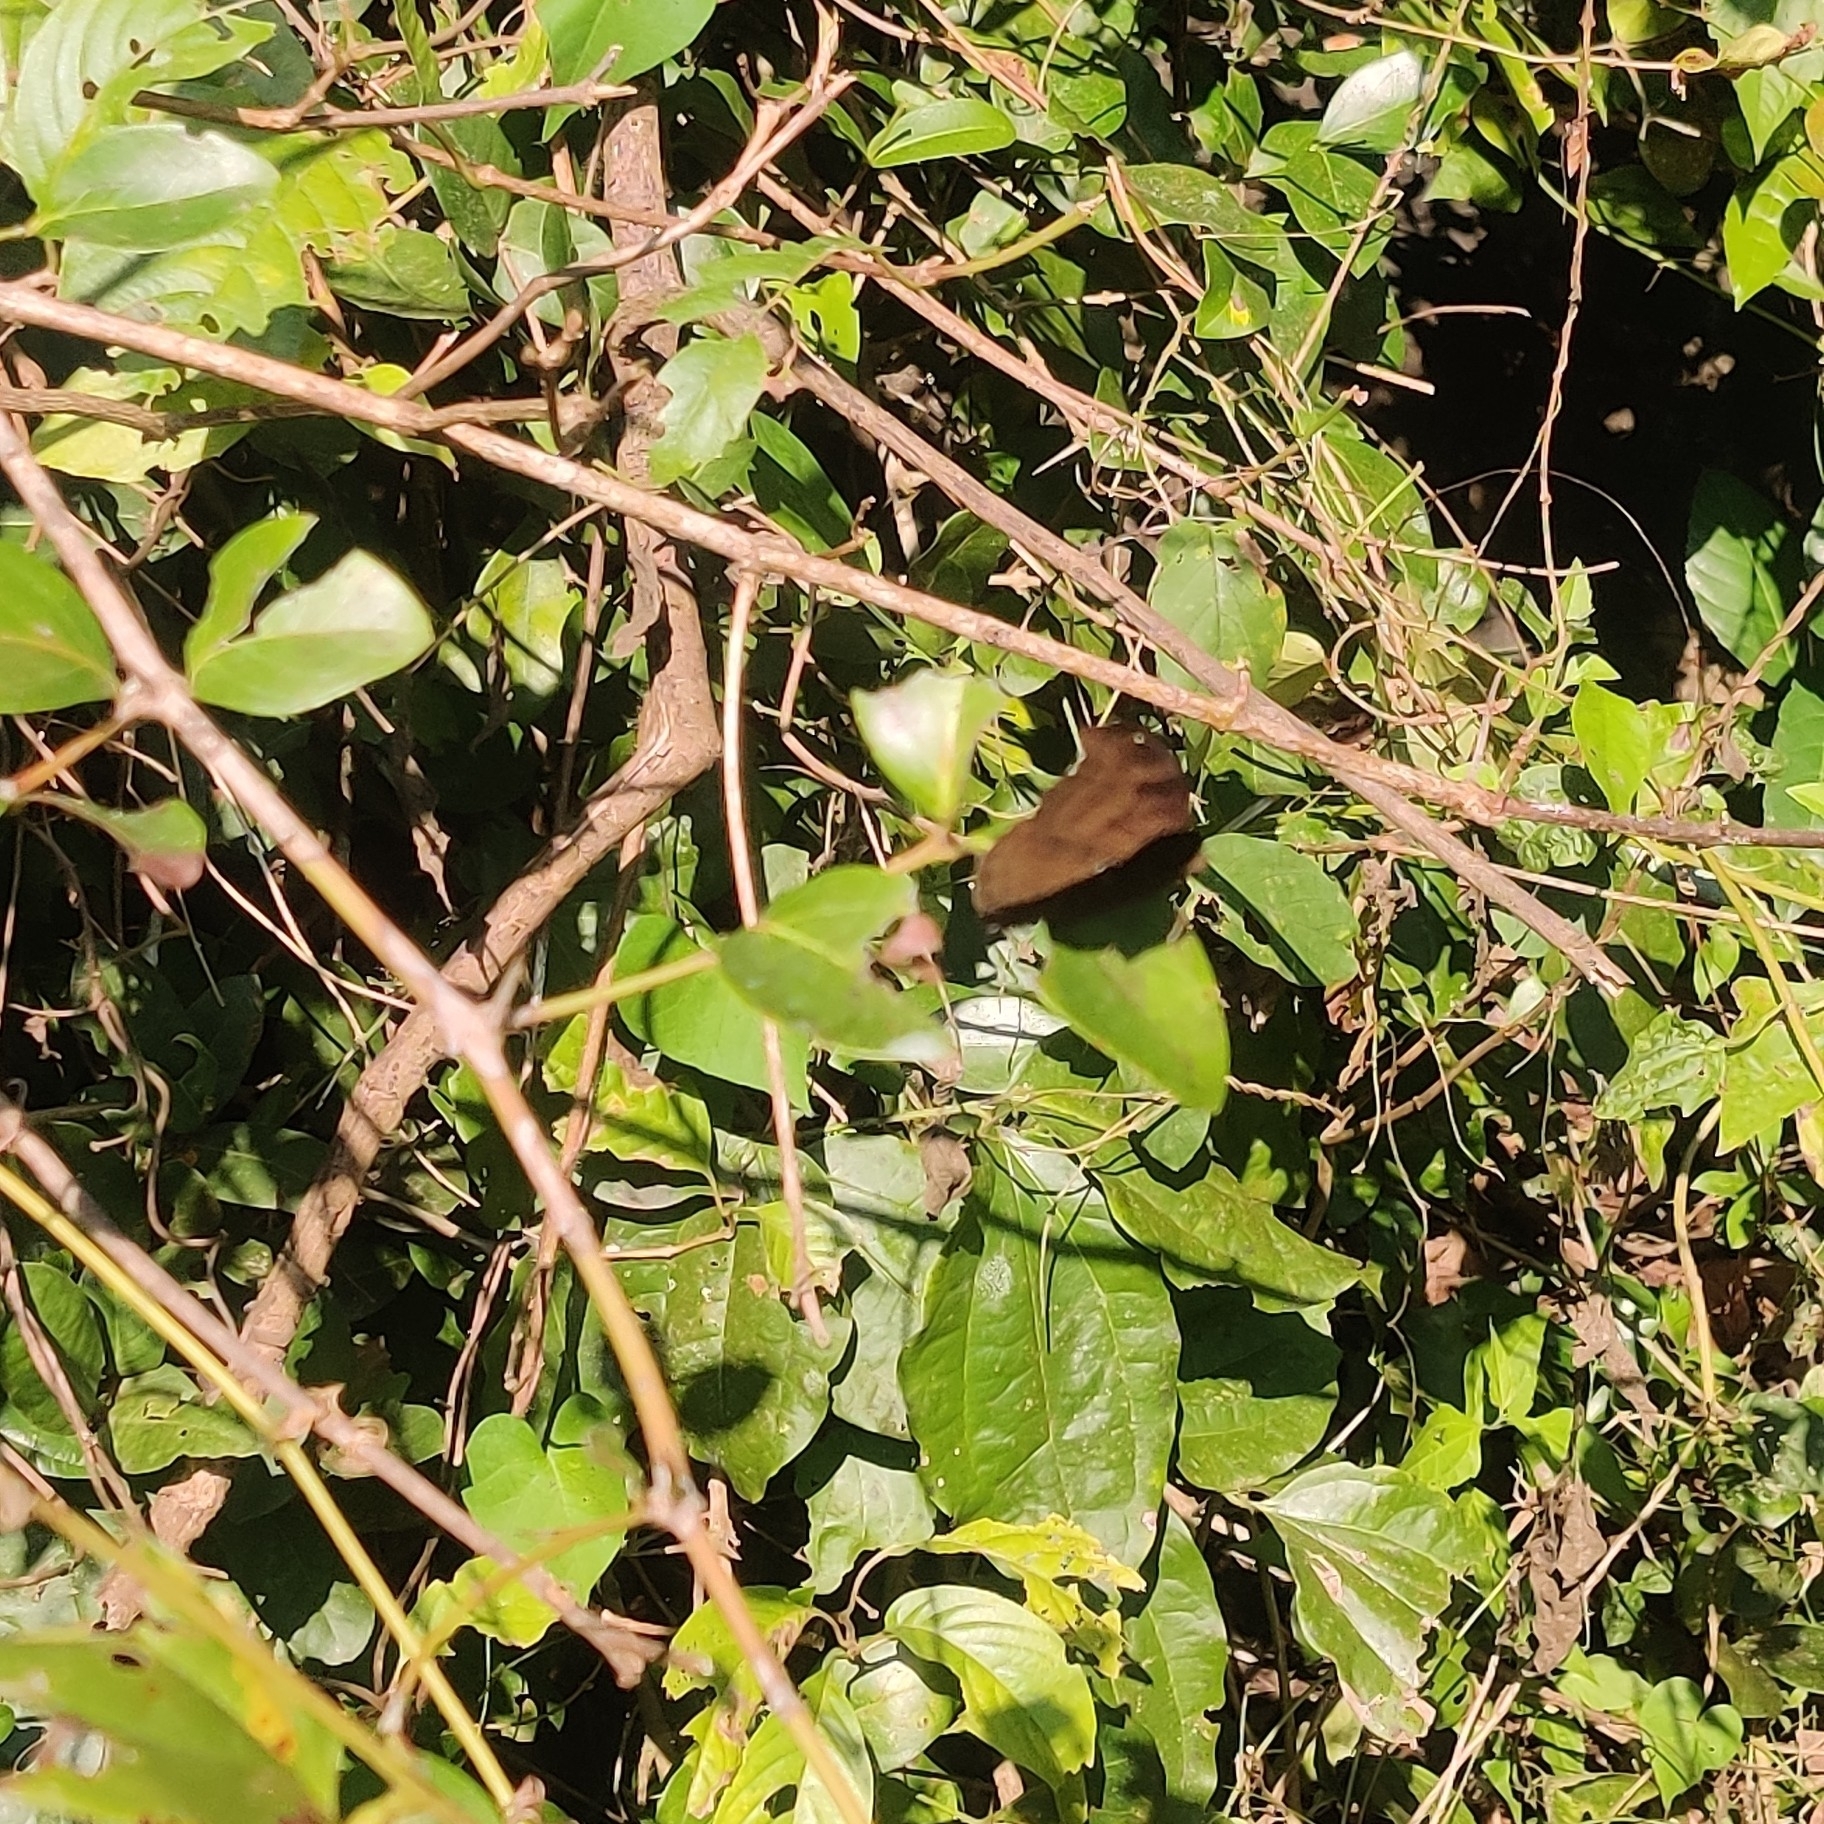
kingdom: Animalia
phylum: Arthropoda
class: Insecta
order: Lepidoptera
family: Nymphalidae
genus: Junonia
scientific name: Junonia iphita
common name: Chocolate pansy
